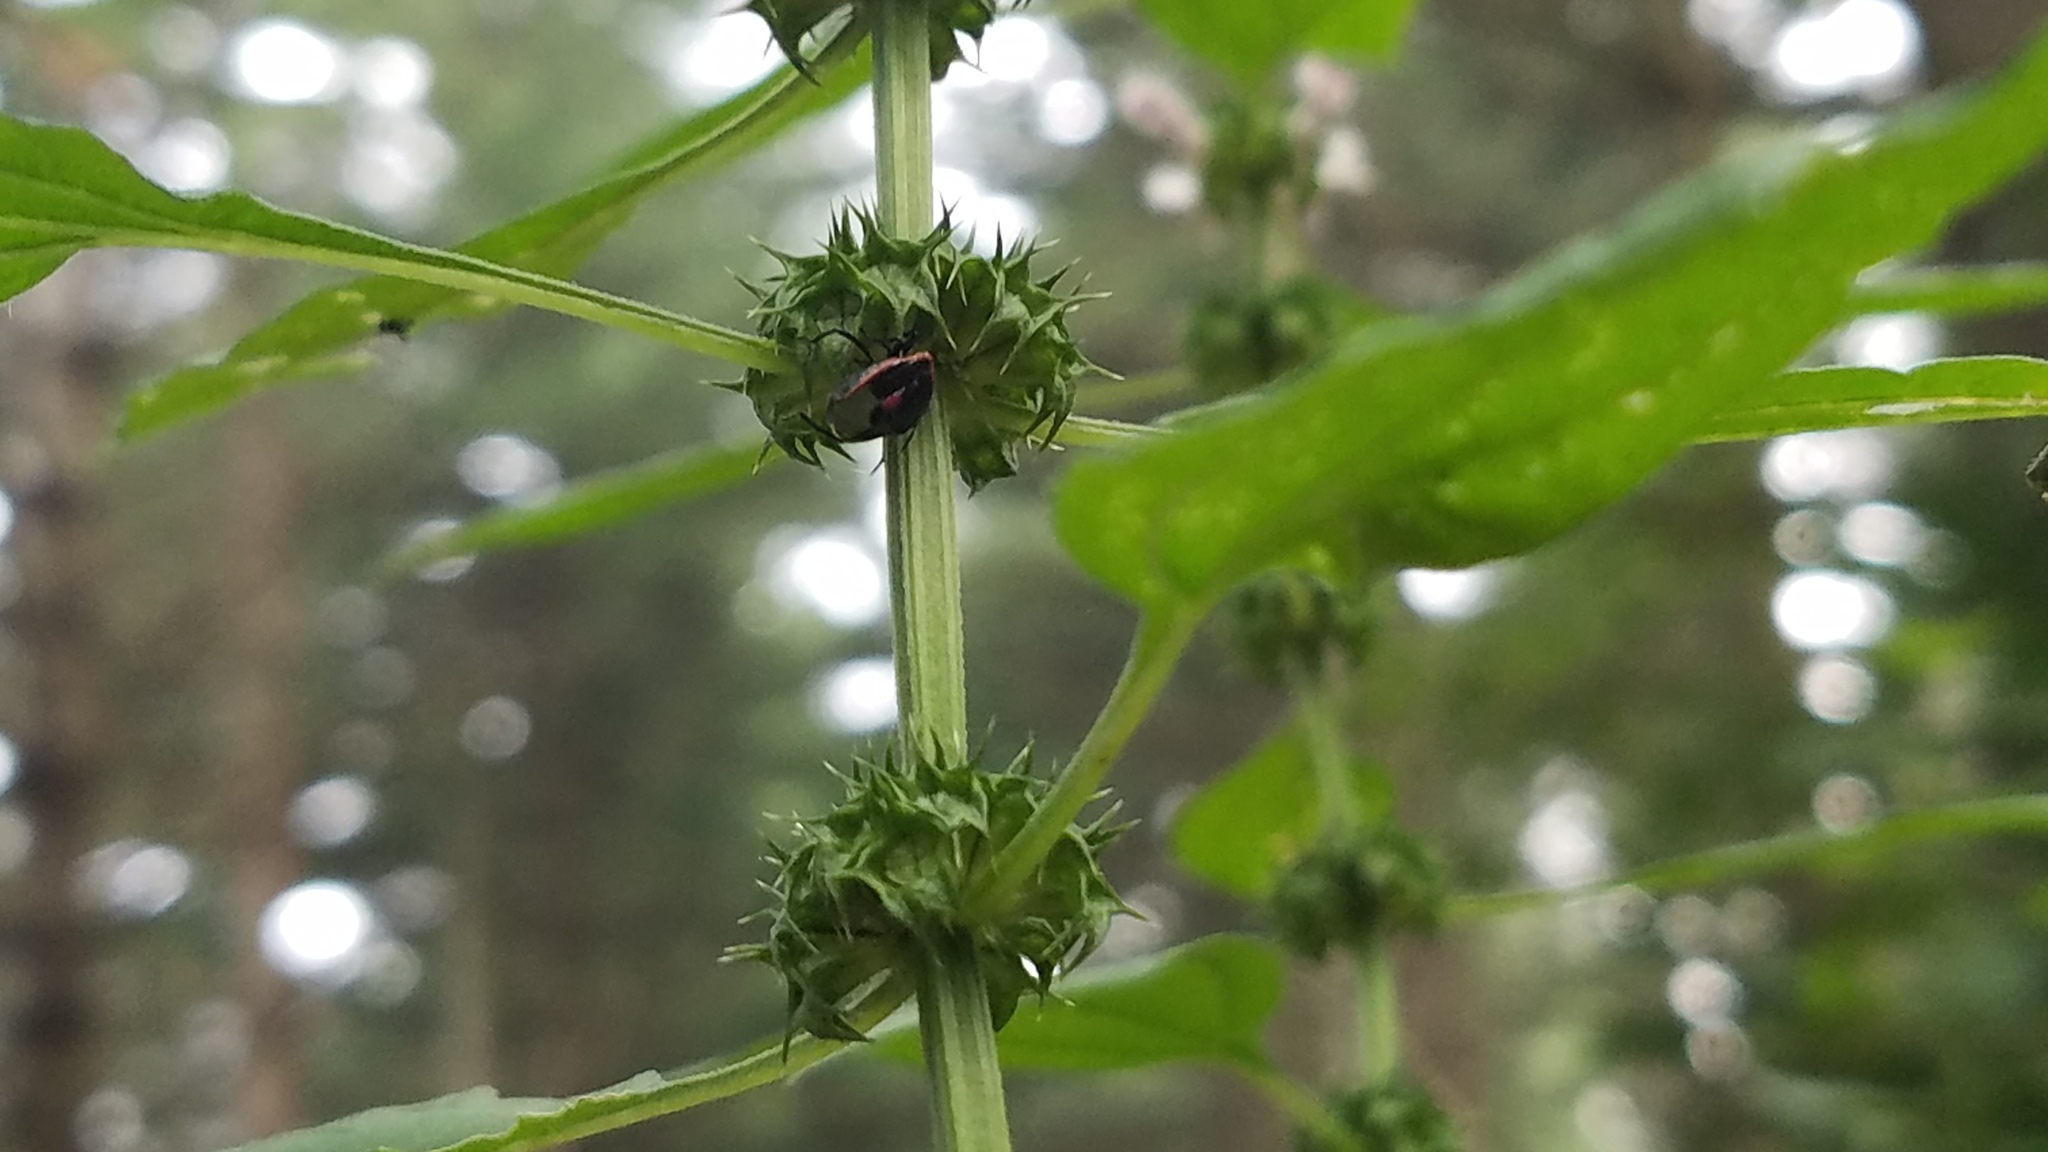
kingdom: Animalia
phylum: Arthropoda
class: Insecta
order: Hemiptera
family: Pentatomidae
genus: Cosmopepla
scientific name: Cosmopepla lintneriana
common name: Twice-stabbed stink bug
